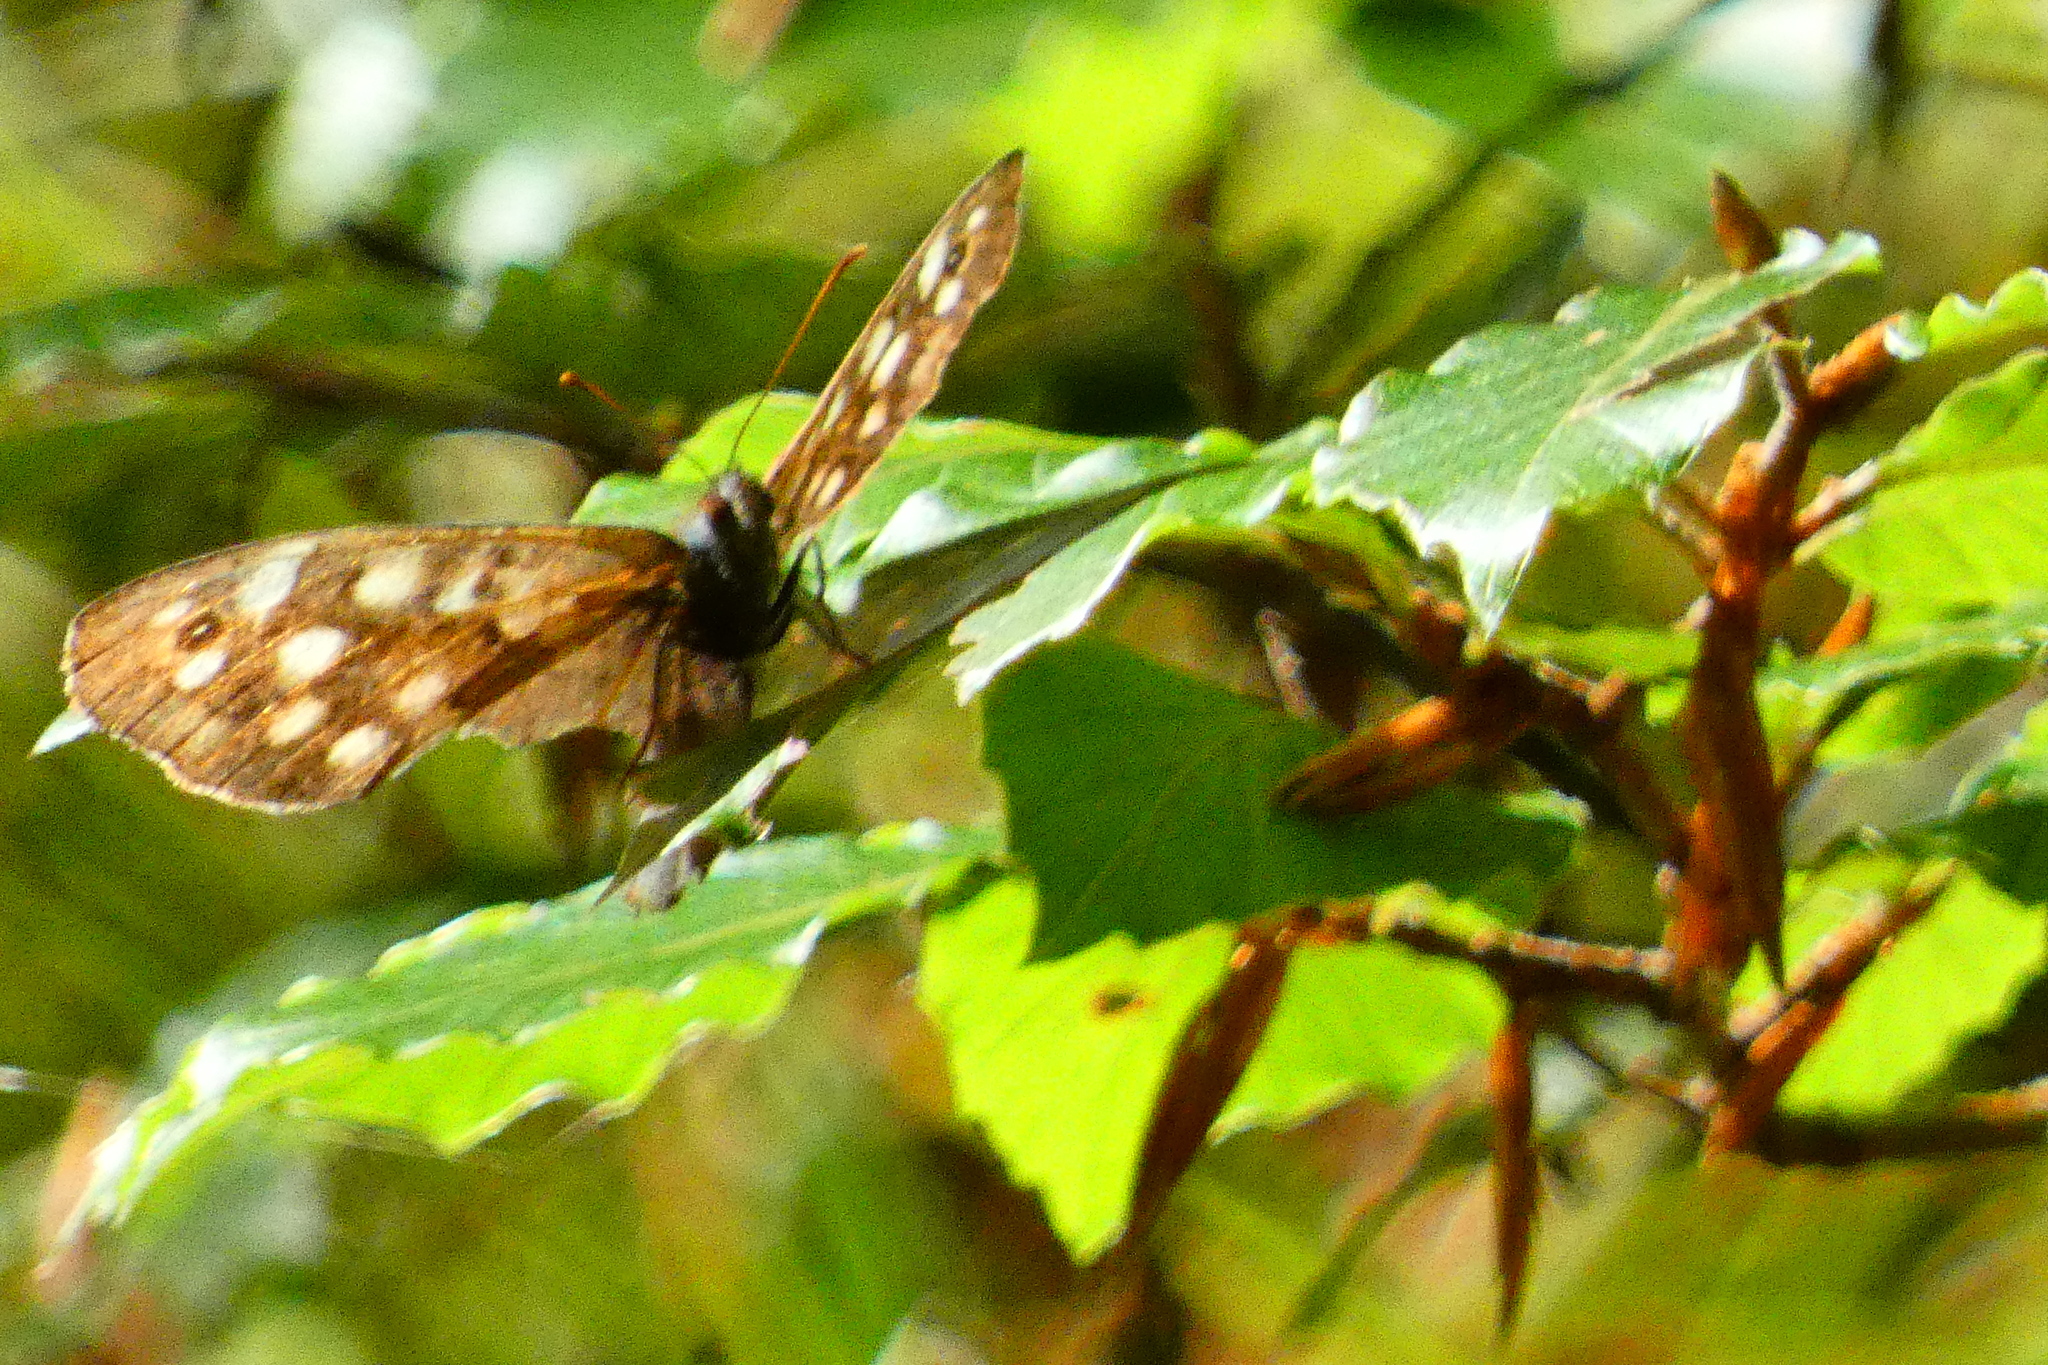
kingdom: Animalia
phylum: Arthropoda
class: Insecta
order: Lepidoptera
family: Nymphalidae
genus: Pararge
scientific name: Pararge aegeria
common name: Speckled wood
